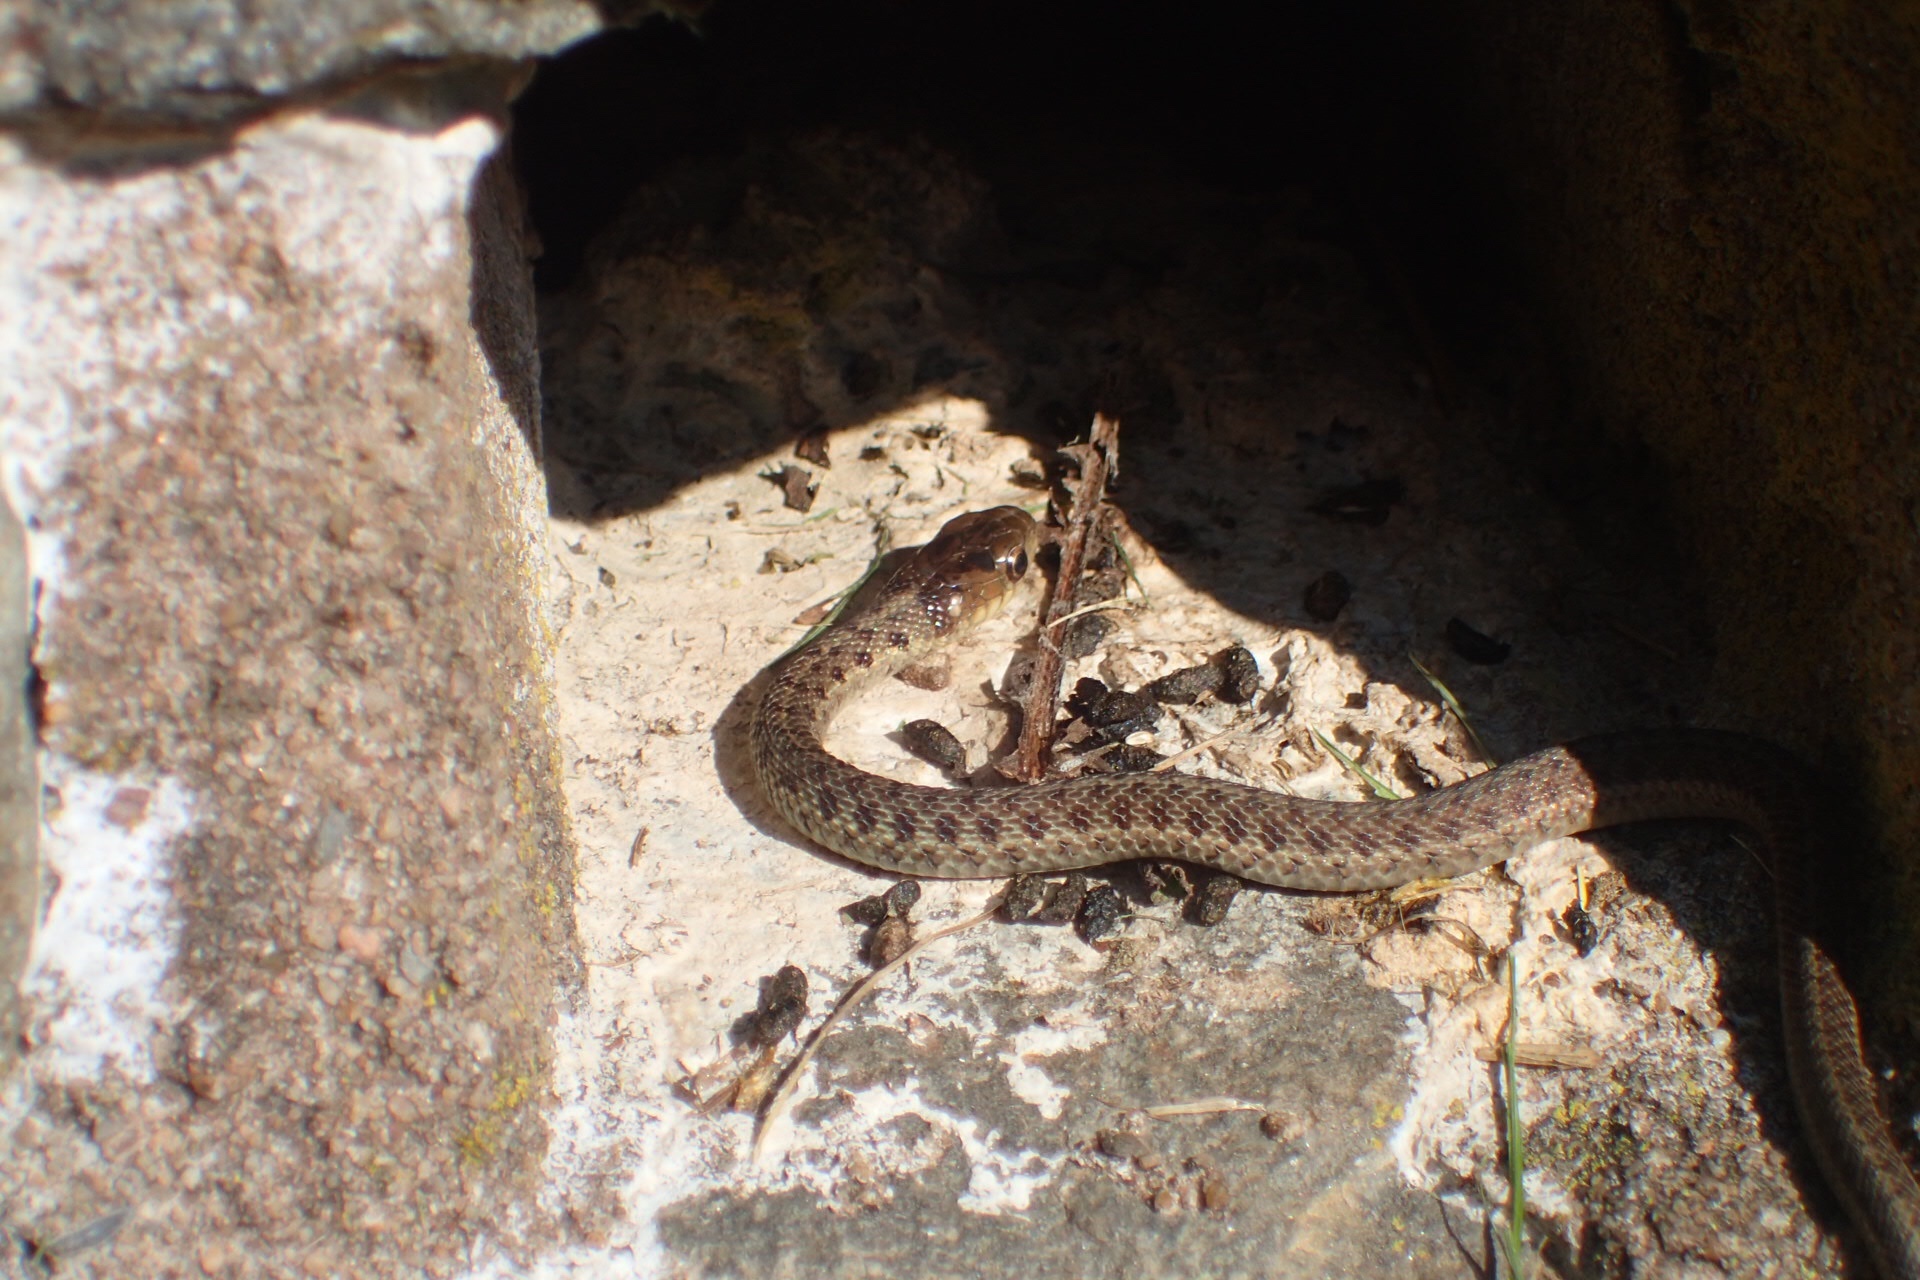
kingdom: Animalia
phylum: Chordata
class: Squamata
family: Colubridae
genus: Thamnophis
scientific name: Thamnophis sirtalis
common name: Common garter snake
